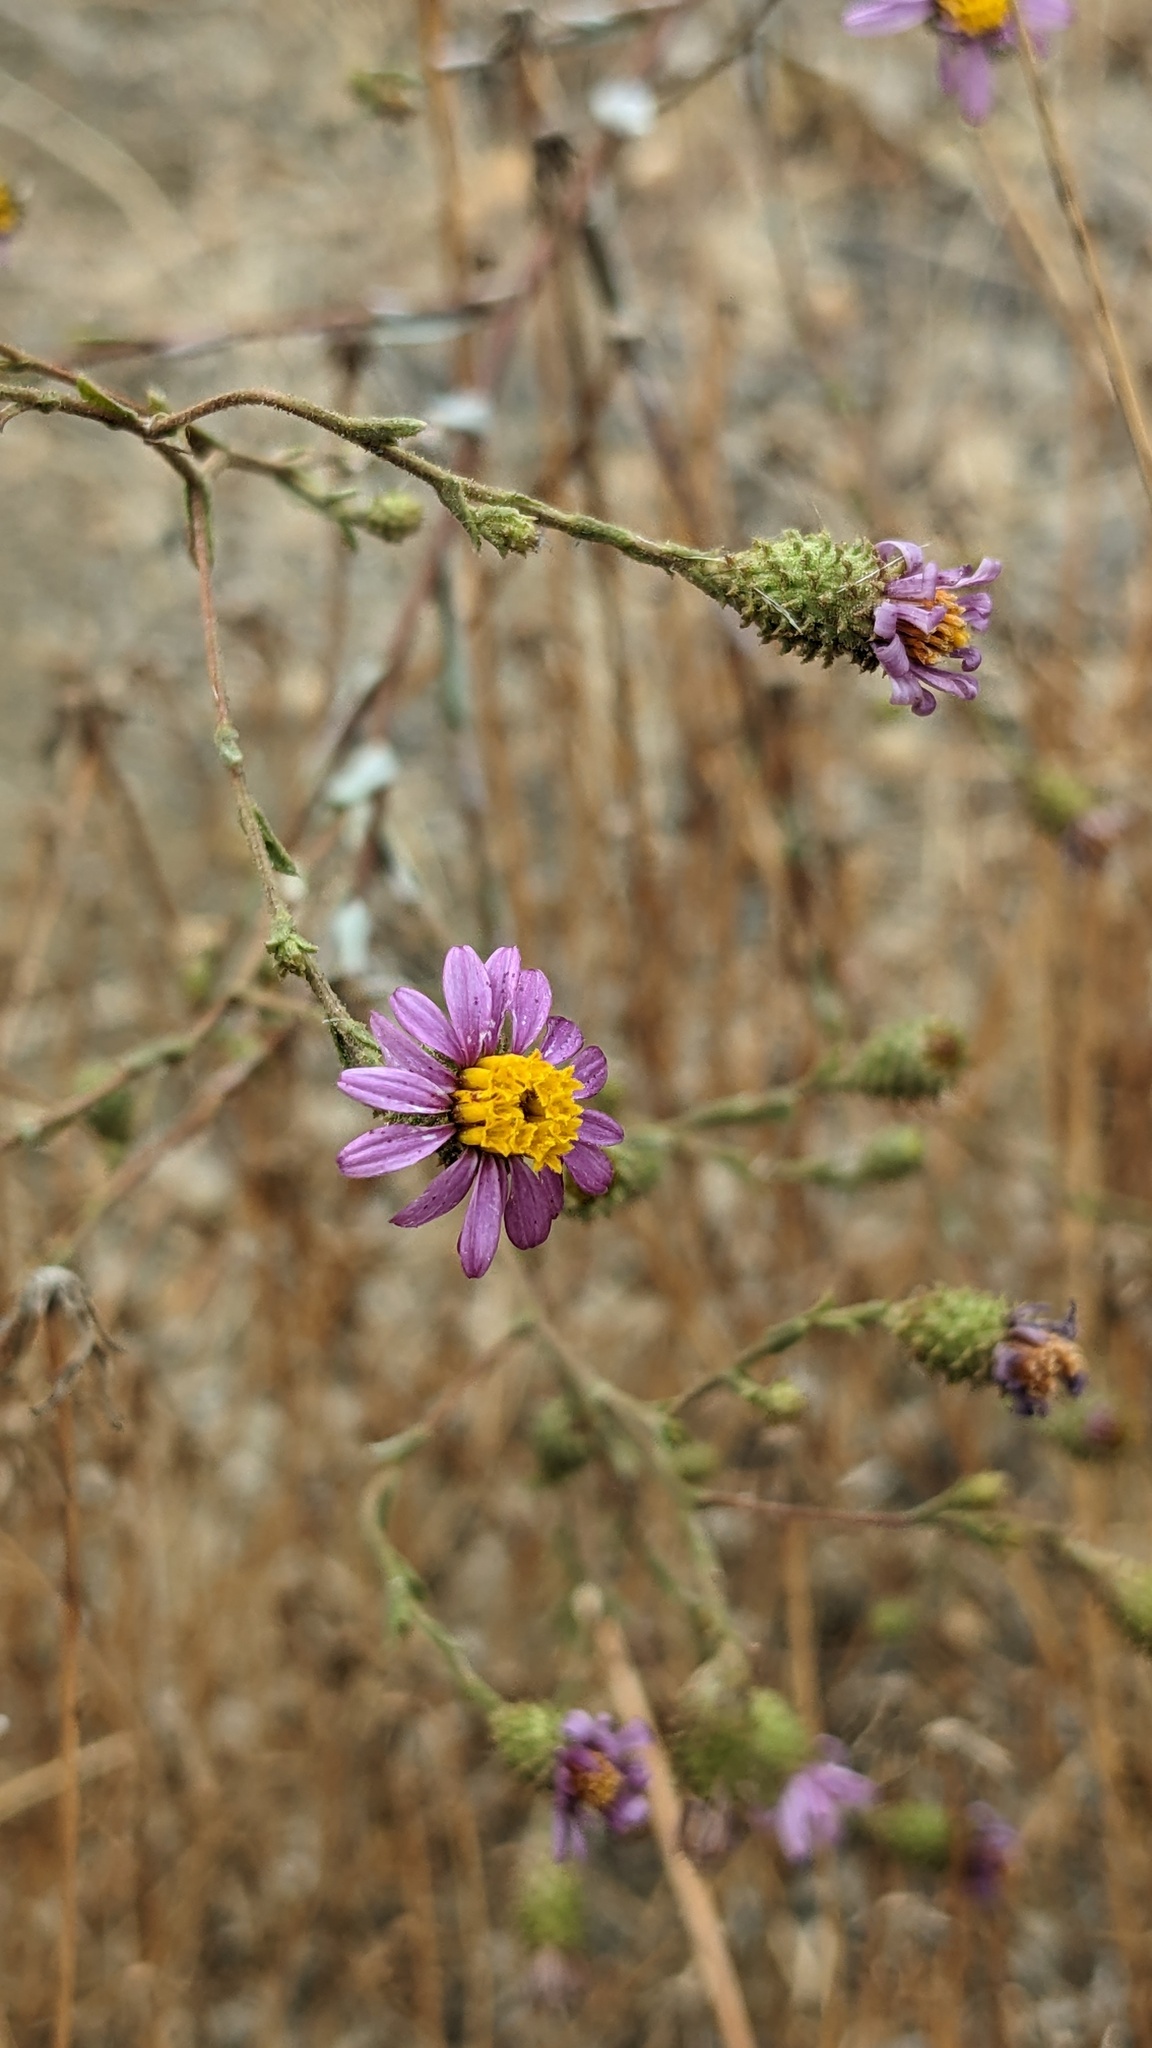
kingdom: Plantae
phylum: Tracheophyta
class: Magnoliopsida
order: Asterales
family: Asteraceae
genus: Corethrogyne
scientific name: Corethrogyne filaginifolia
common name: Sand-aster
